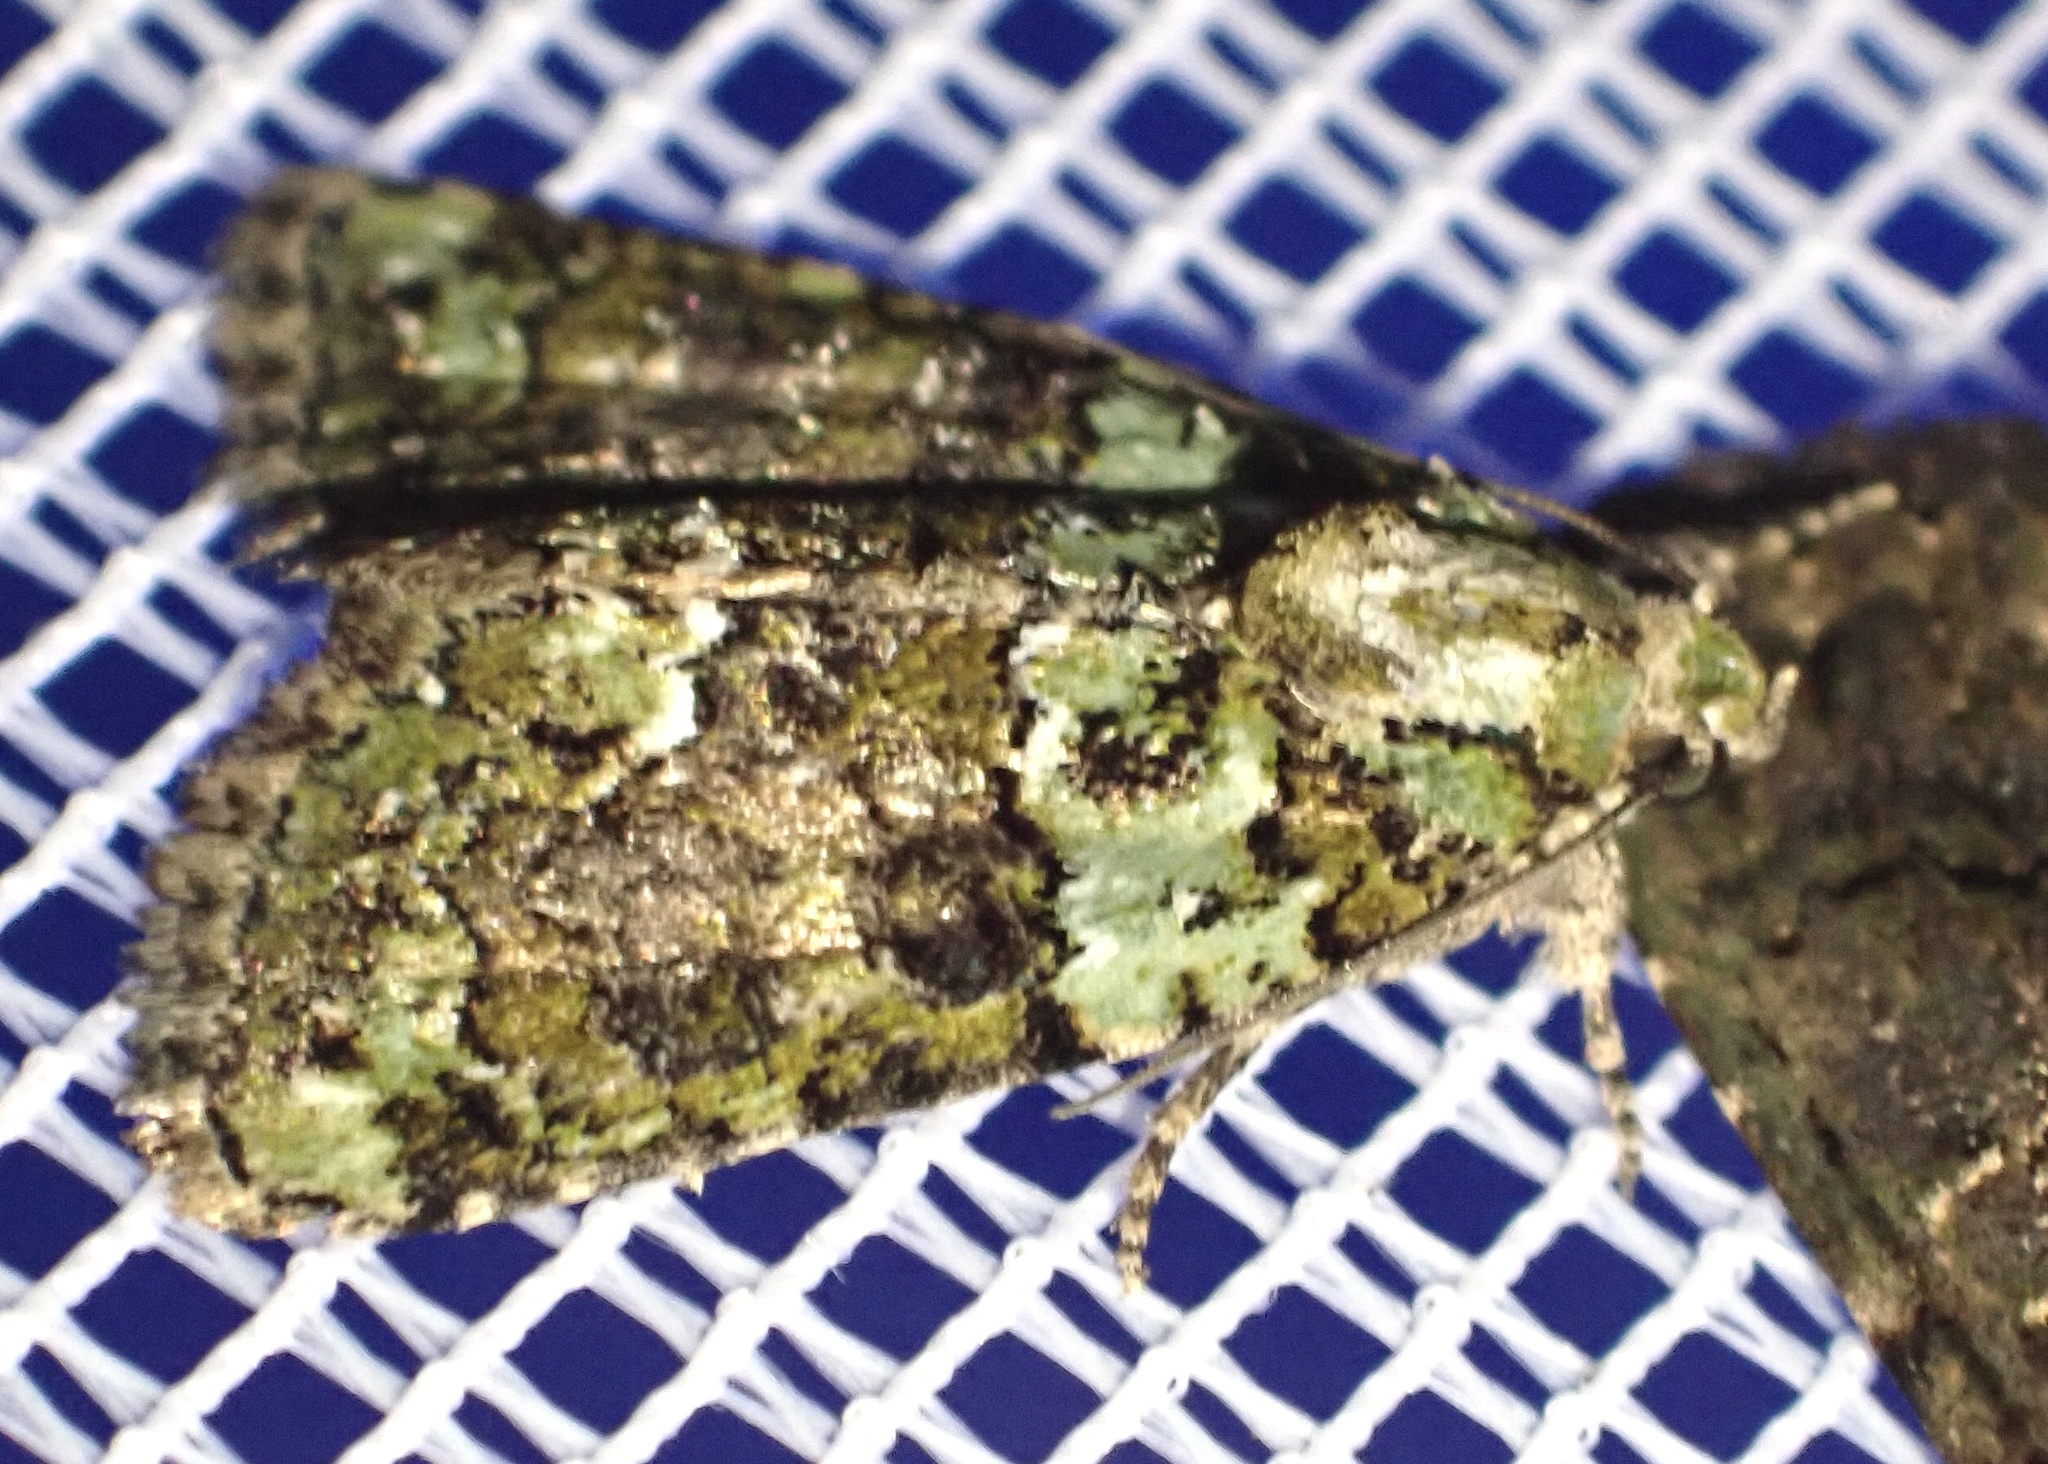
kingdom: Animalia
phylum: Arthropoda
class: Insecta
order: Lepidoptera
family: Noctuidae
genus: Cryphia
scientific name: Cryphia algae
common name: Tree-lichen beauty
